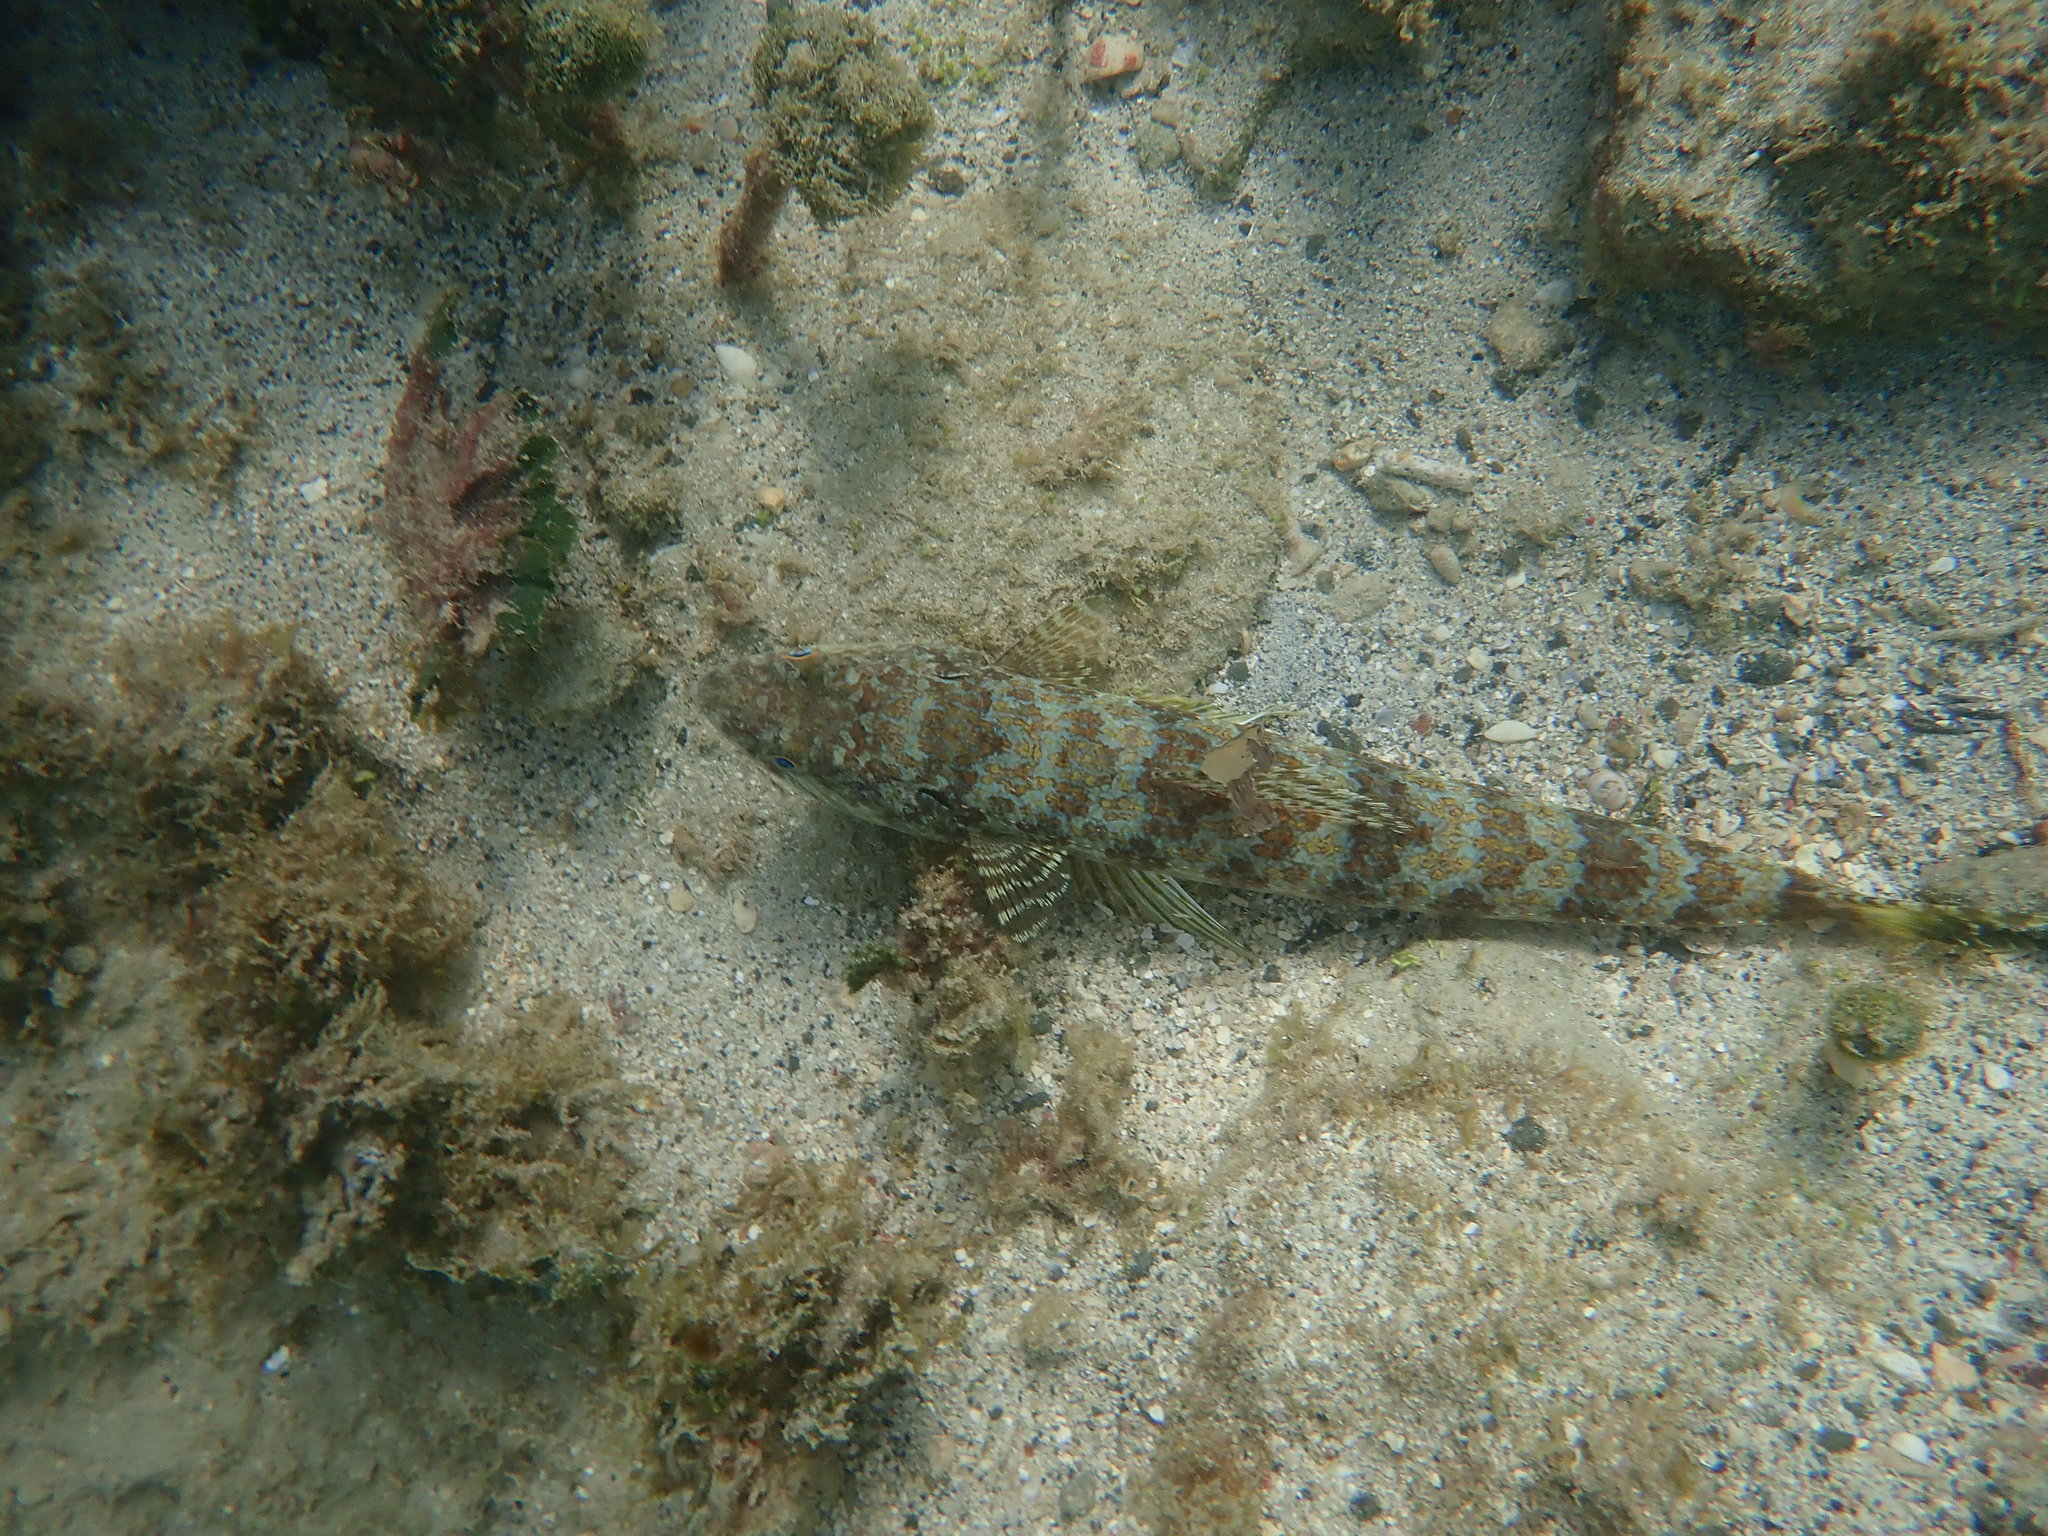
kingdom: Animalia
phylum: Chordata
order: Aulopiformes
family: Synodontidae
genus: Synodus
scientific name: Synodus intermedius
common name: Sand diver
